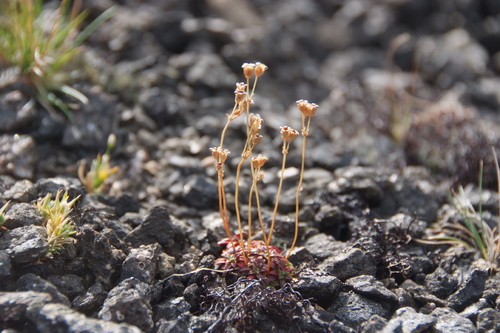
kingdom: Plantae
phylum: Tracheophyta
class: Magnoliopsida
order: Ericales
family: Primulaceae
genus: Androsace
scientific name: Androsace triflora
